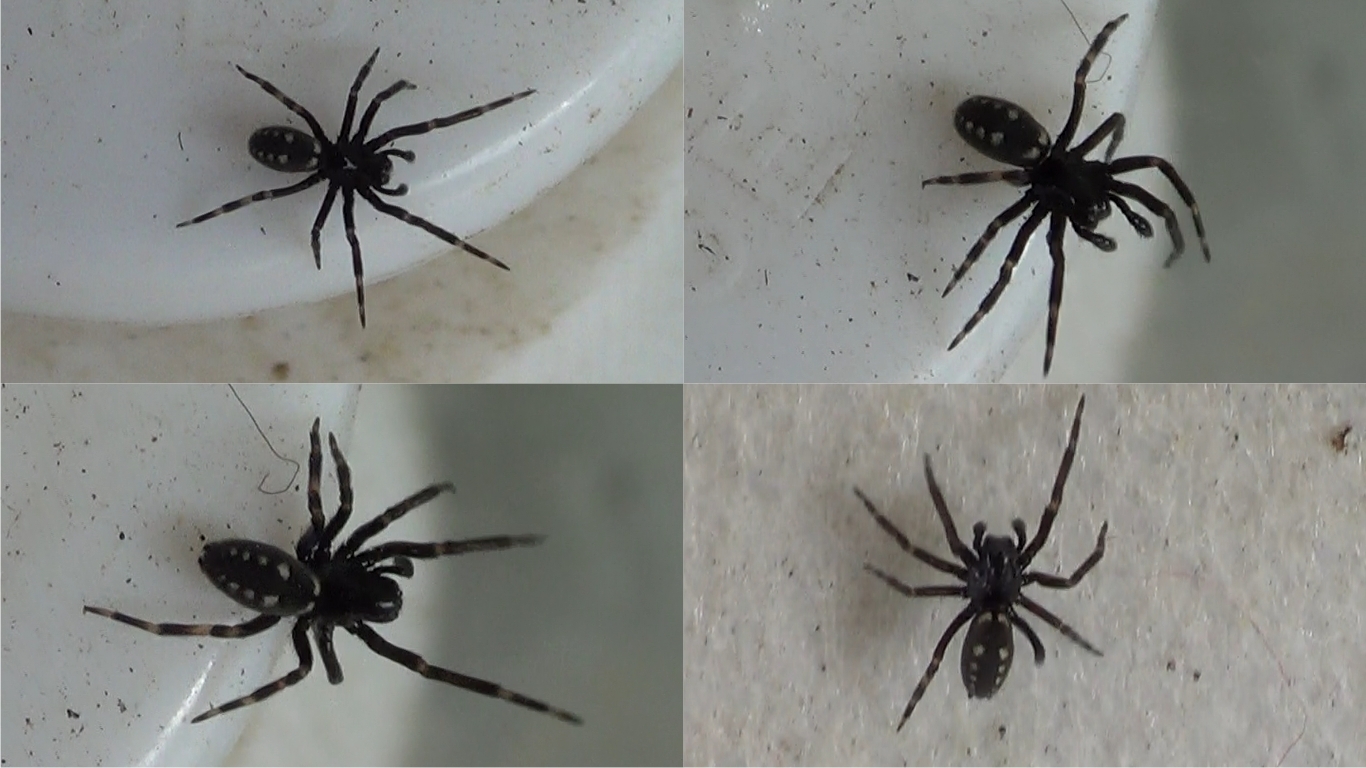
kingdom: Animalia
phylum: Arthropoda
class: Arachnida
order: Araneae
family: Titanoecidae
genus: Nurscia
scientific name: Nurscia albomaculata
